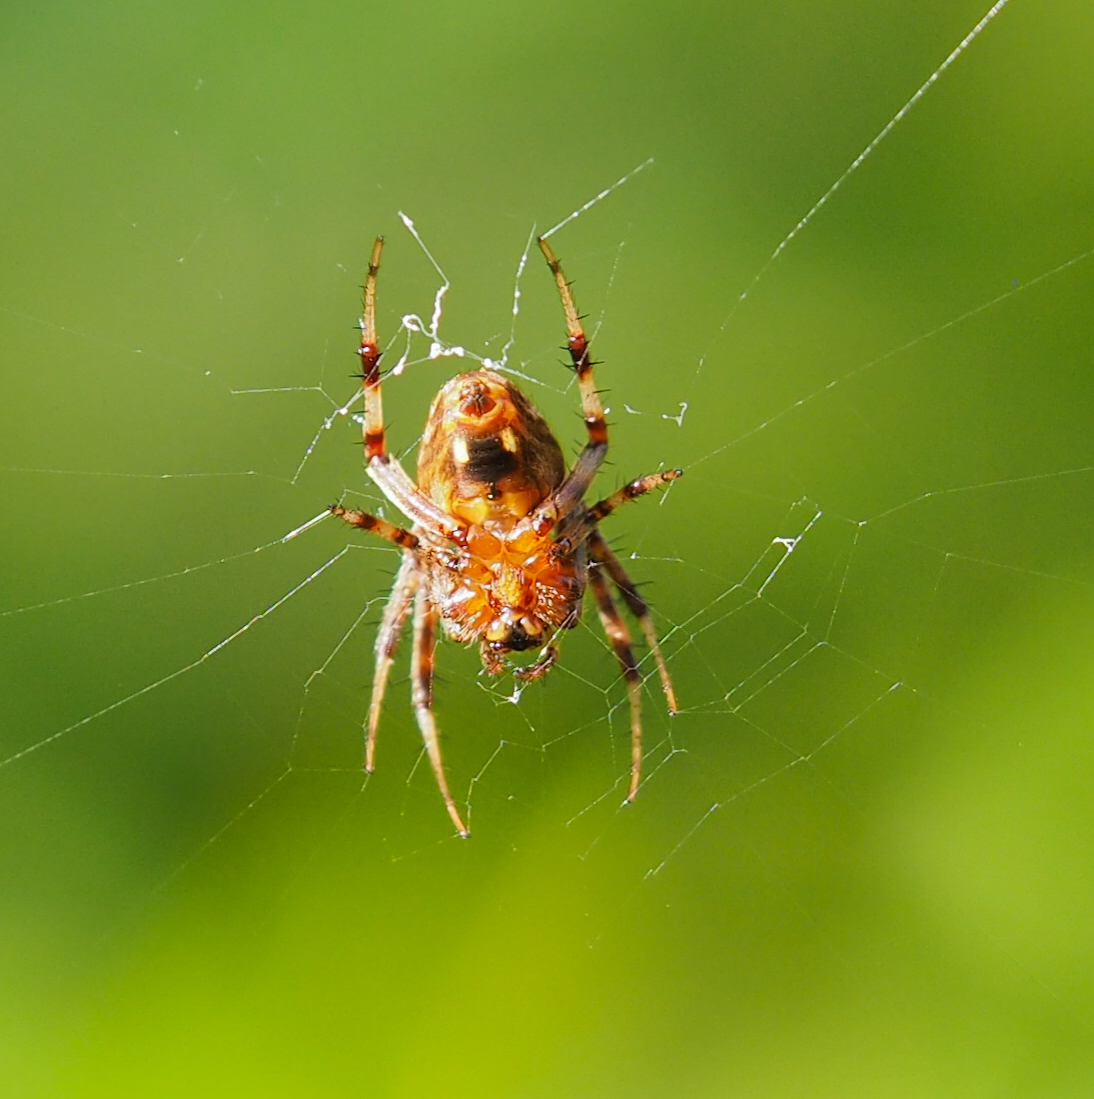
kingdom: Animalia
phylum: Arthropoda
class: Arachnida
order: Araneae
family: Araneidae
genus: Neoscona
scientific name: Neoscona crucifera
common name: Spotted orbweaver
